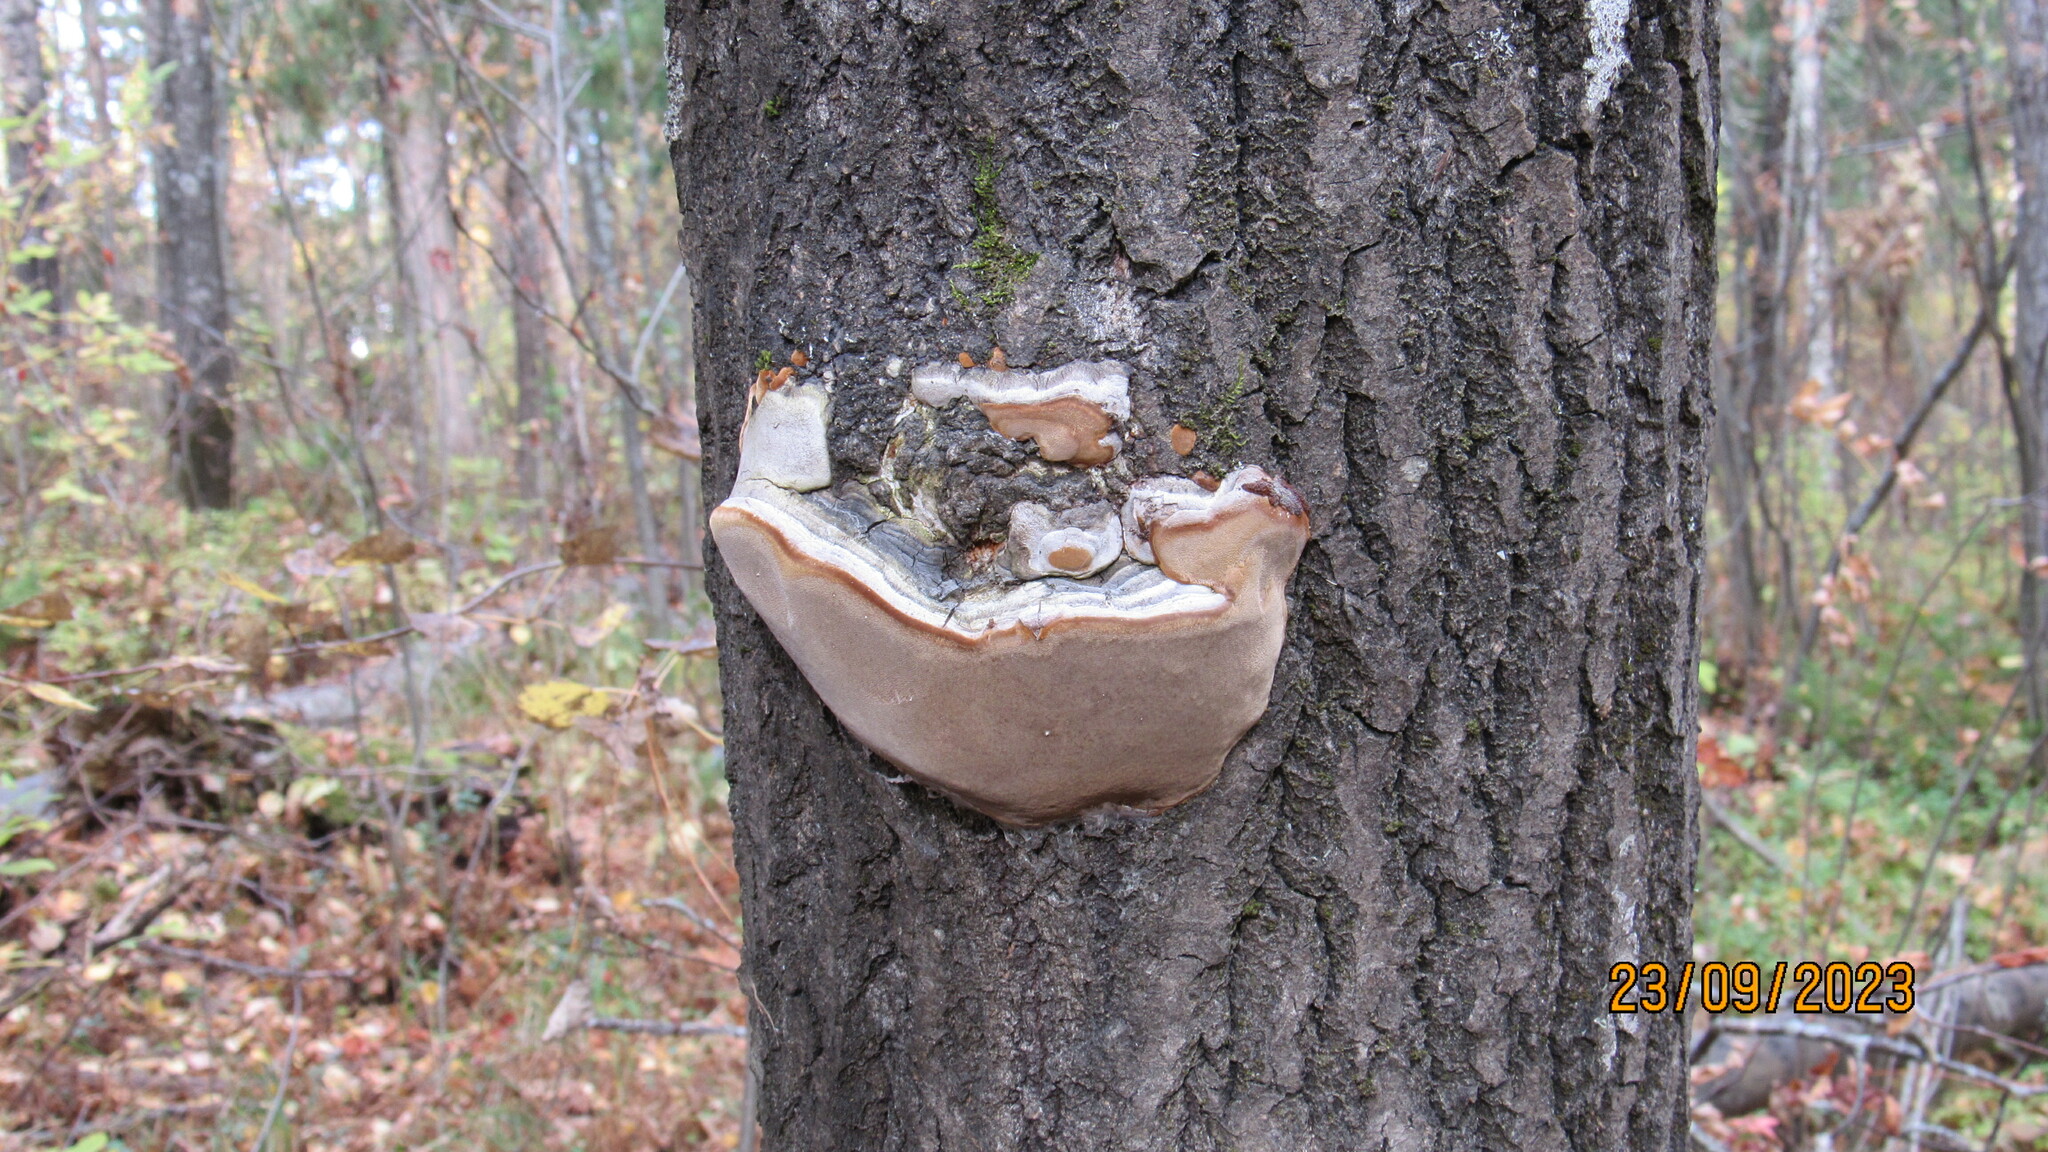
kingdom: Fungi
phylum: Basidiomycota
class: Agaricomycetes
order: Hymenochaetales
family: Hymenochaetaceae
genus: Phellinus
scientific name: Phellinus tremulae
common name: Aspen bracket
